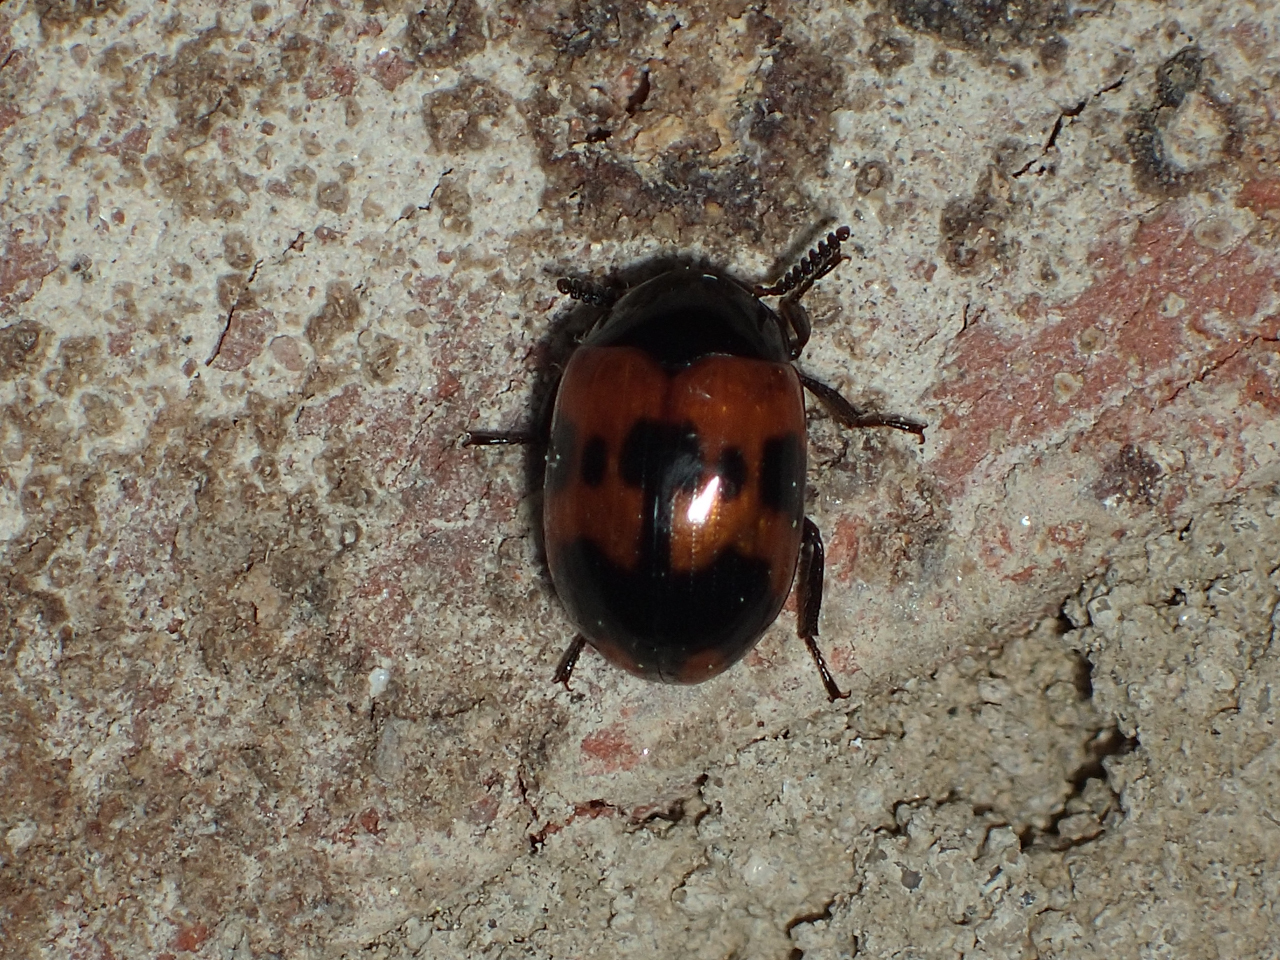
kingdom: Animalia
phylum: Arthropoda
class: Insecta
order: Coleoptera
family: Tenebrionidae
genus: Diaperis
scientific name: Diaperis nigronotata
